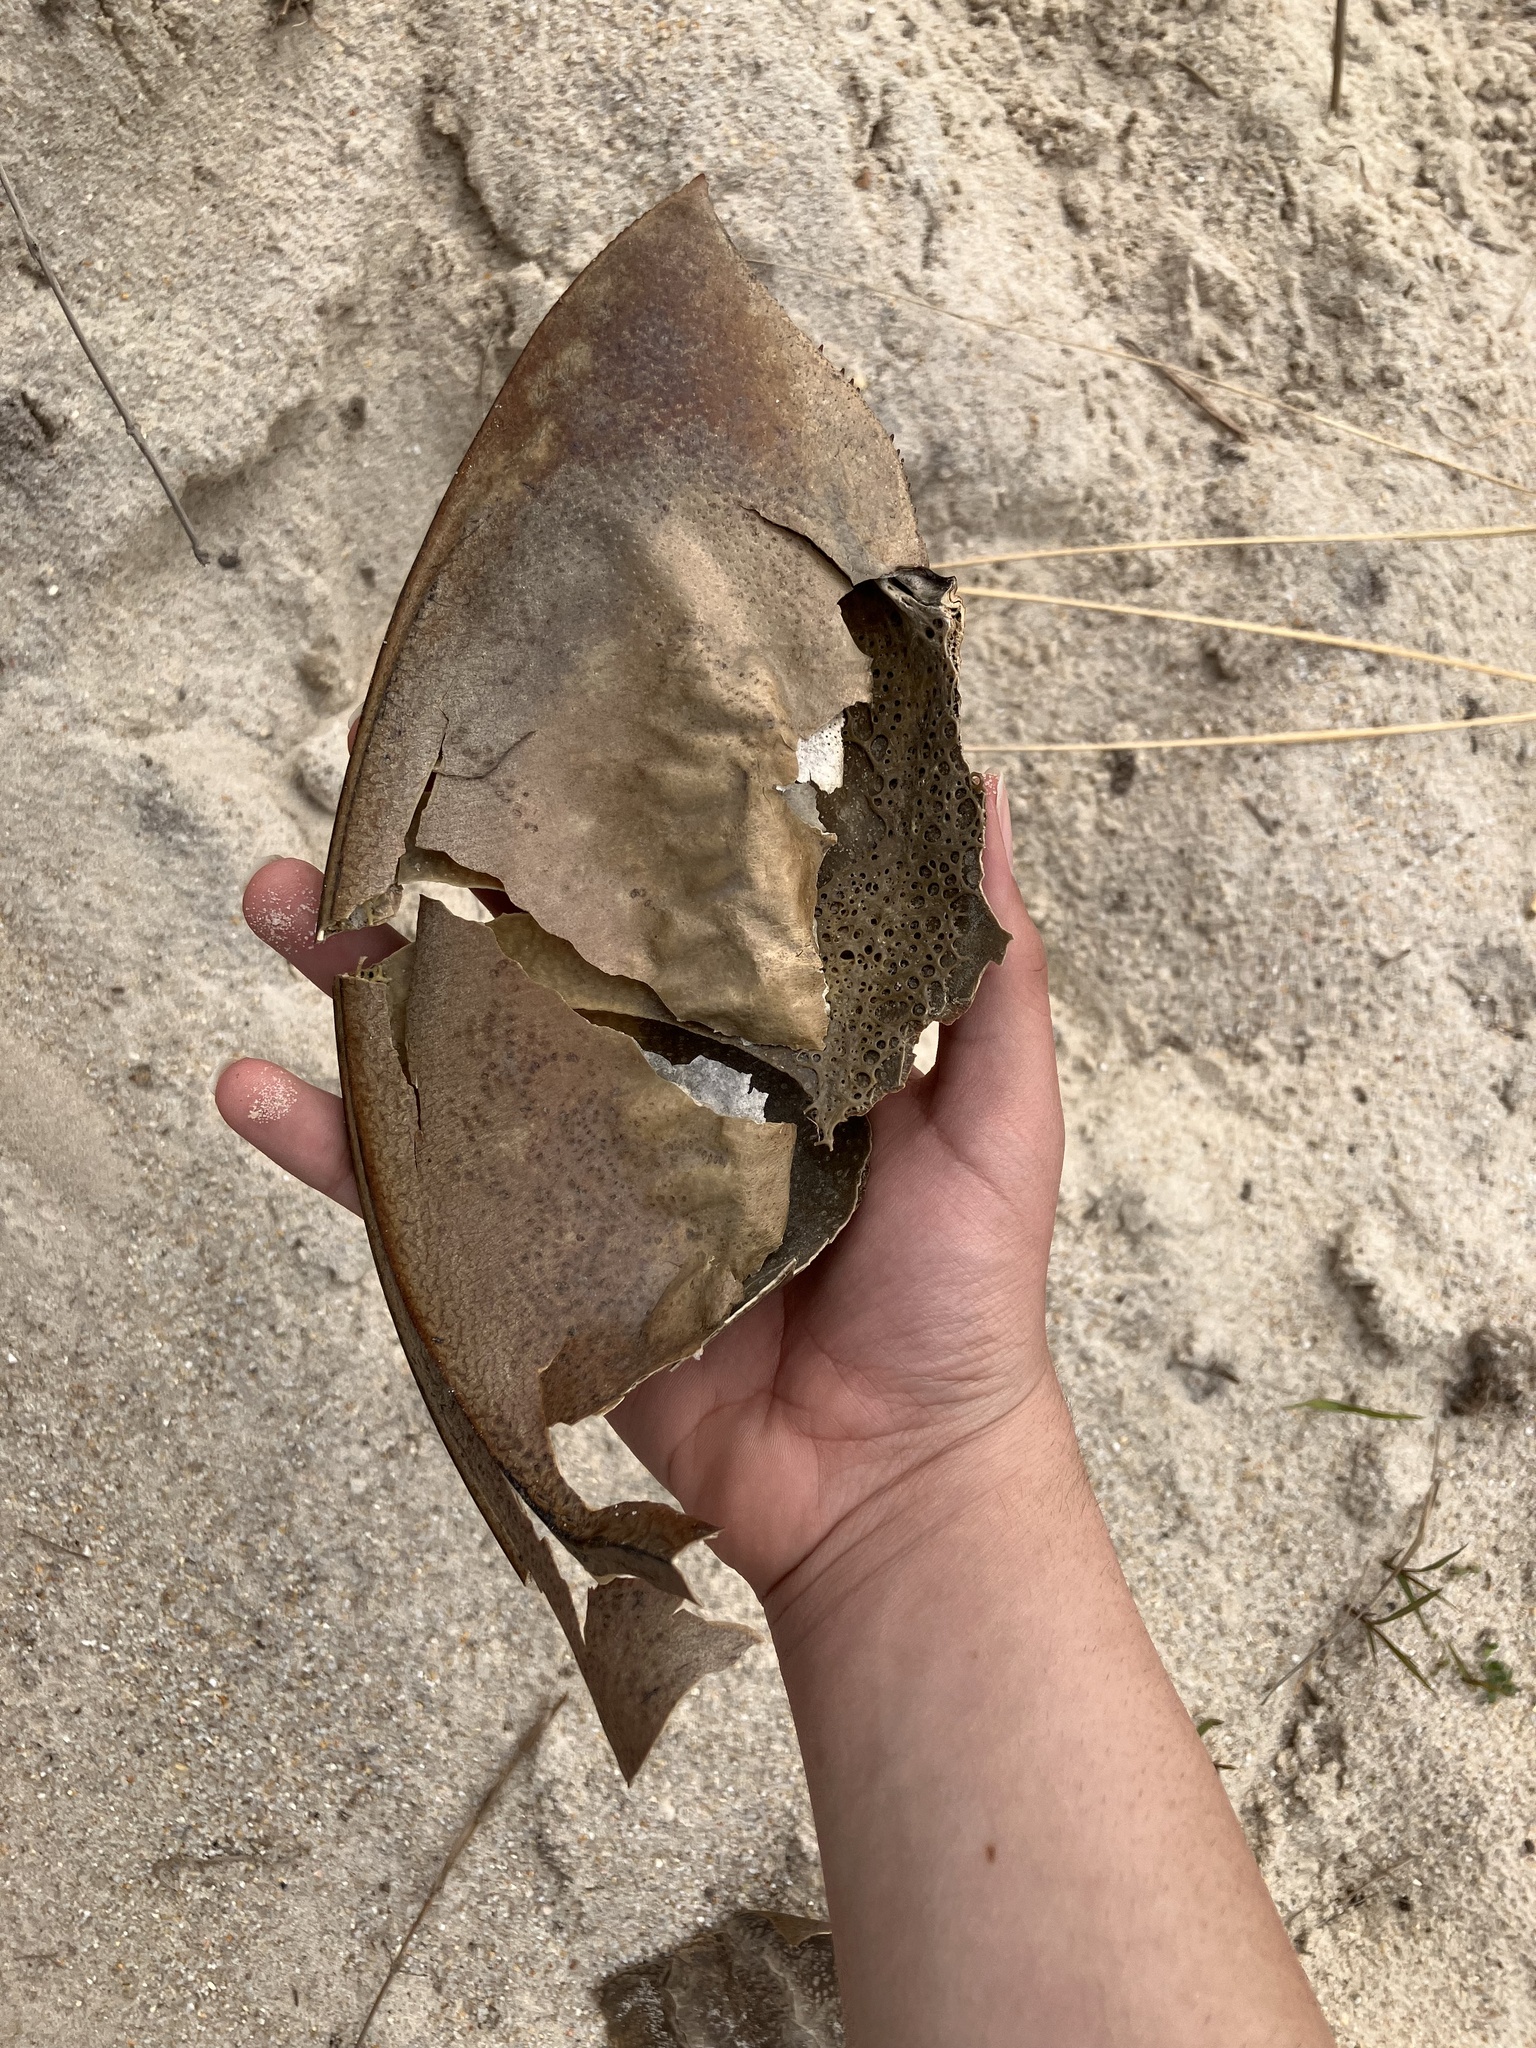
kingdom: Animalia
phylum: Arthropoda
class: Merostomata
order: Xiphosurida
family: Limulidae
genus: Limulus
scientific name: Limulus polyphemus
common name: Horseshoe crab
